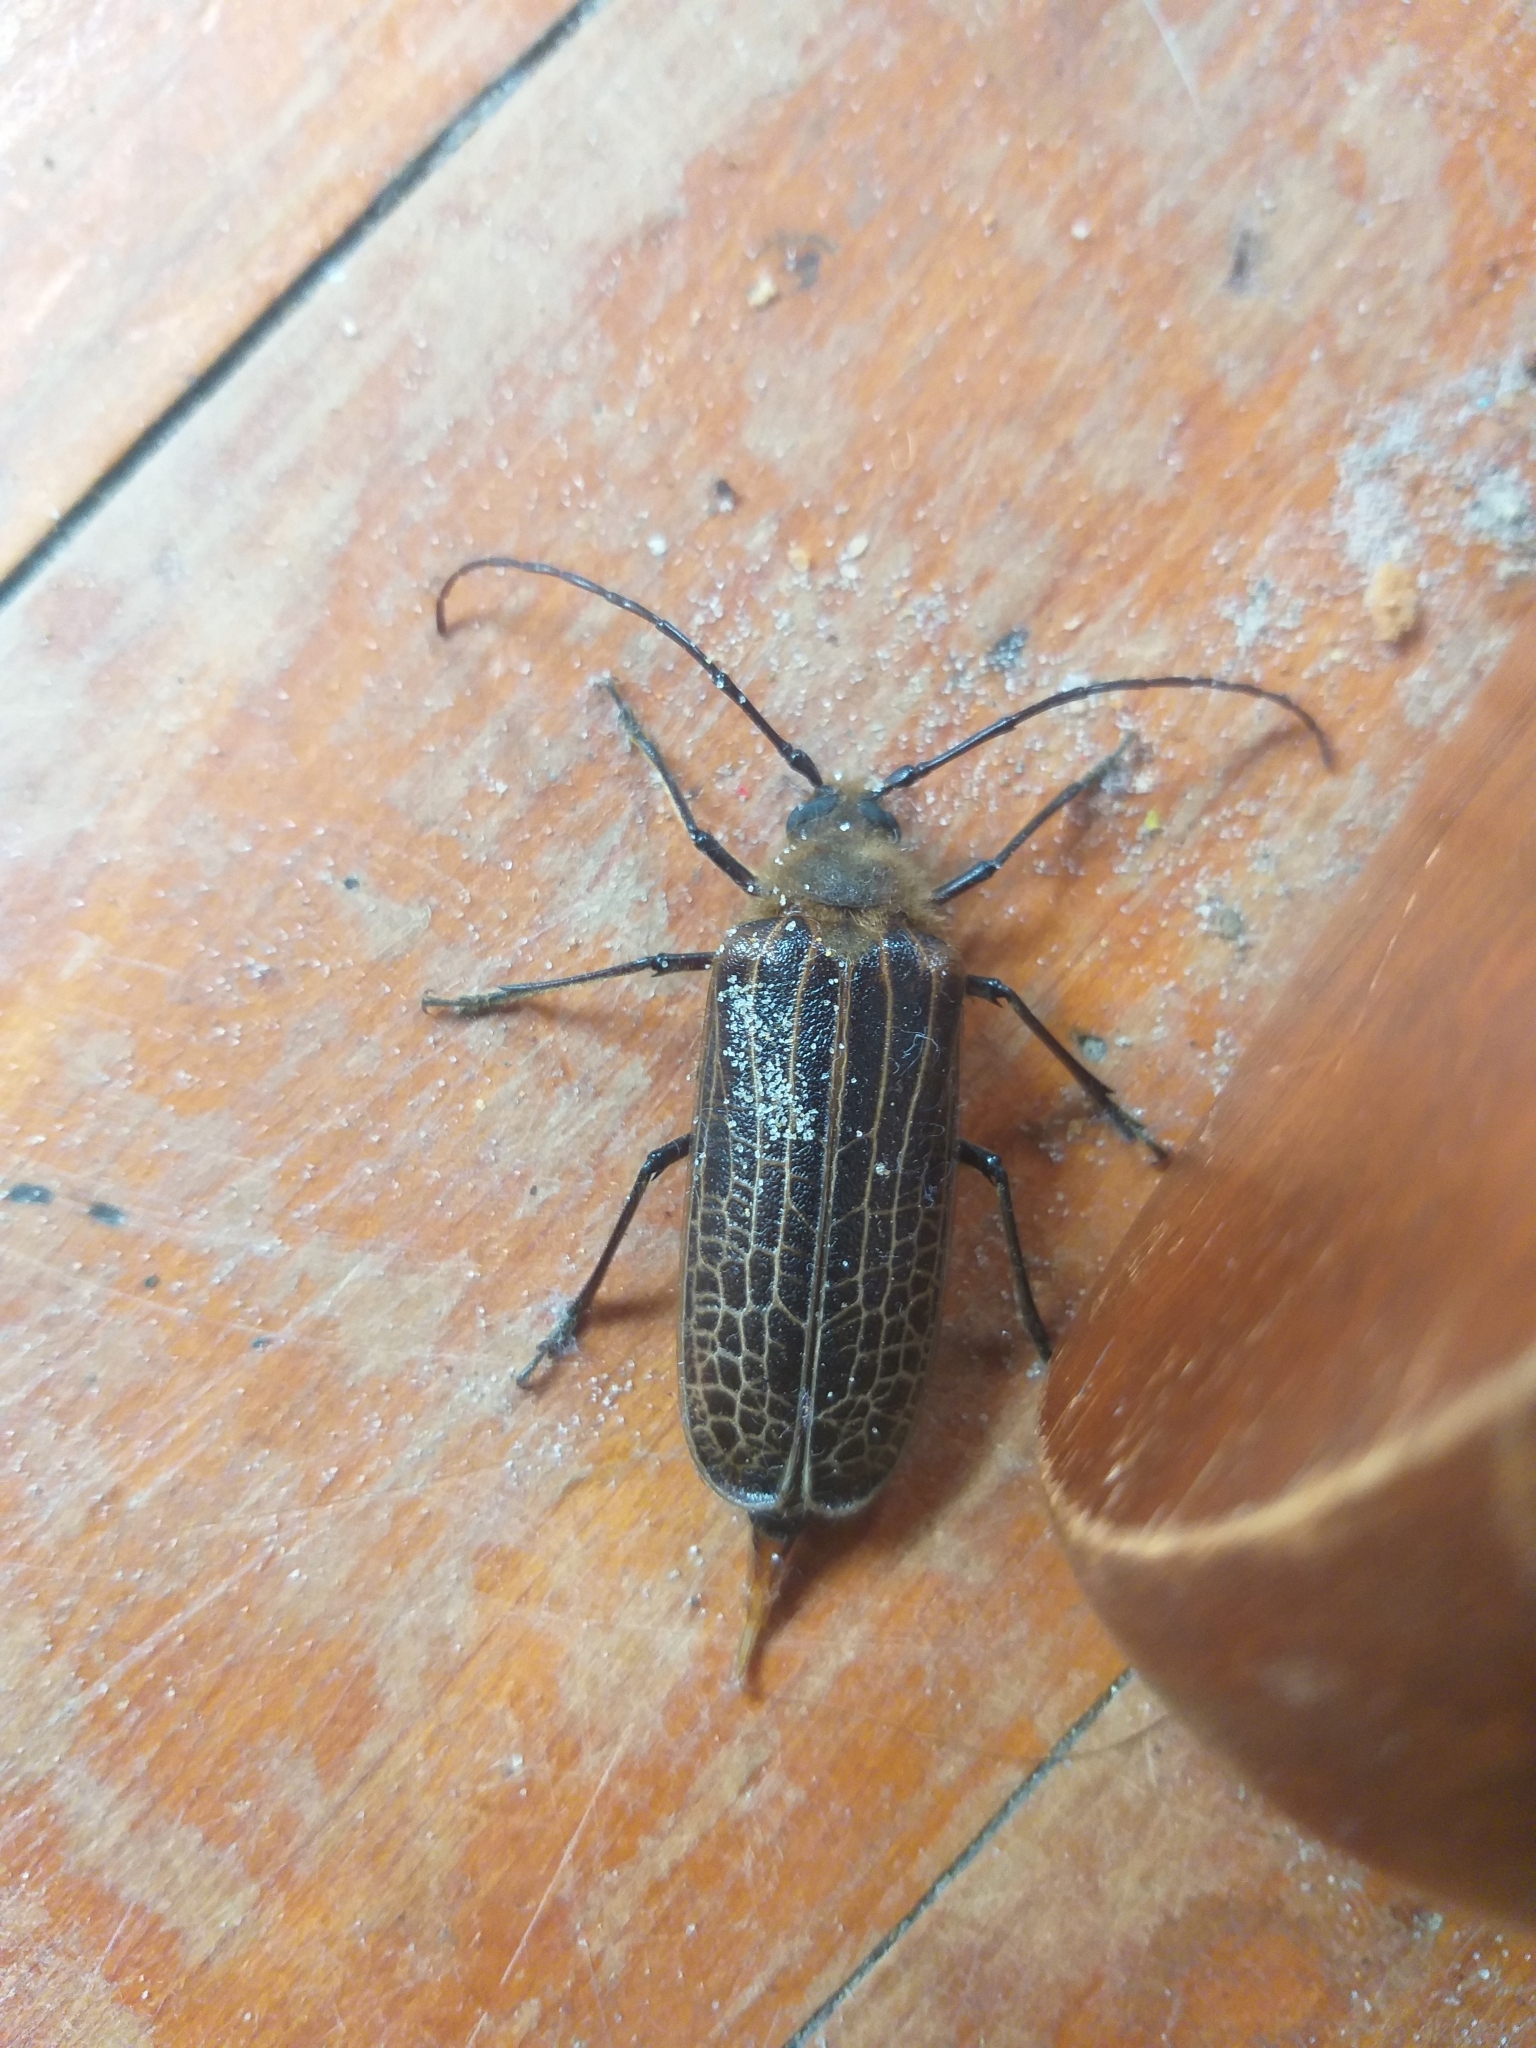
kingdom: Animalia
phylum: Arthropoda
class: Insecta
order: Coleoptera
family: Cerambycidae
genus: Prionoplus
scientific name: Prionoplus reticularis
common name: Huhu beetle
